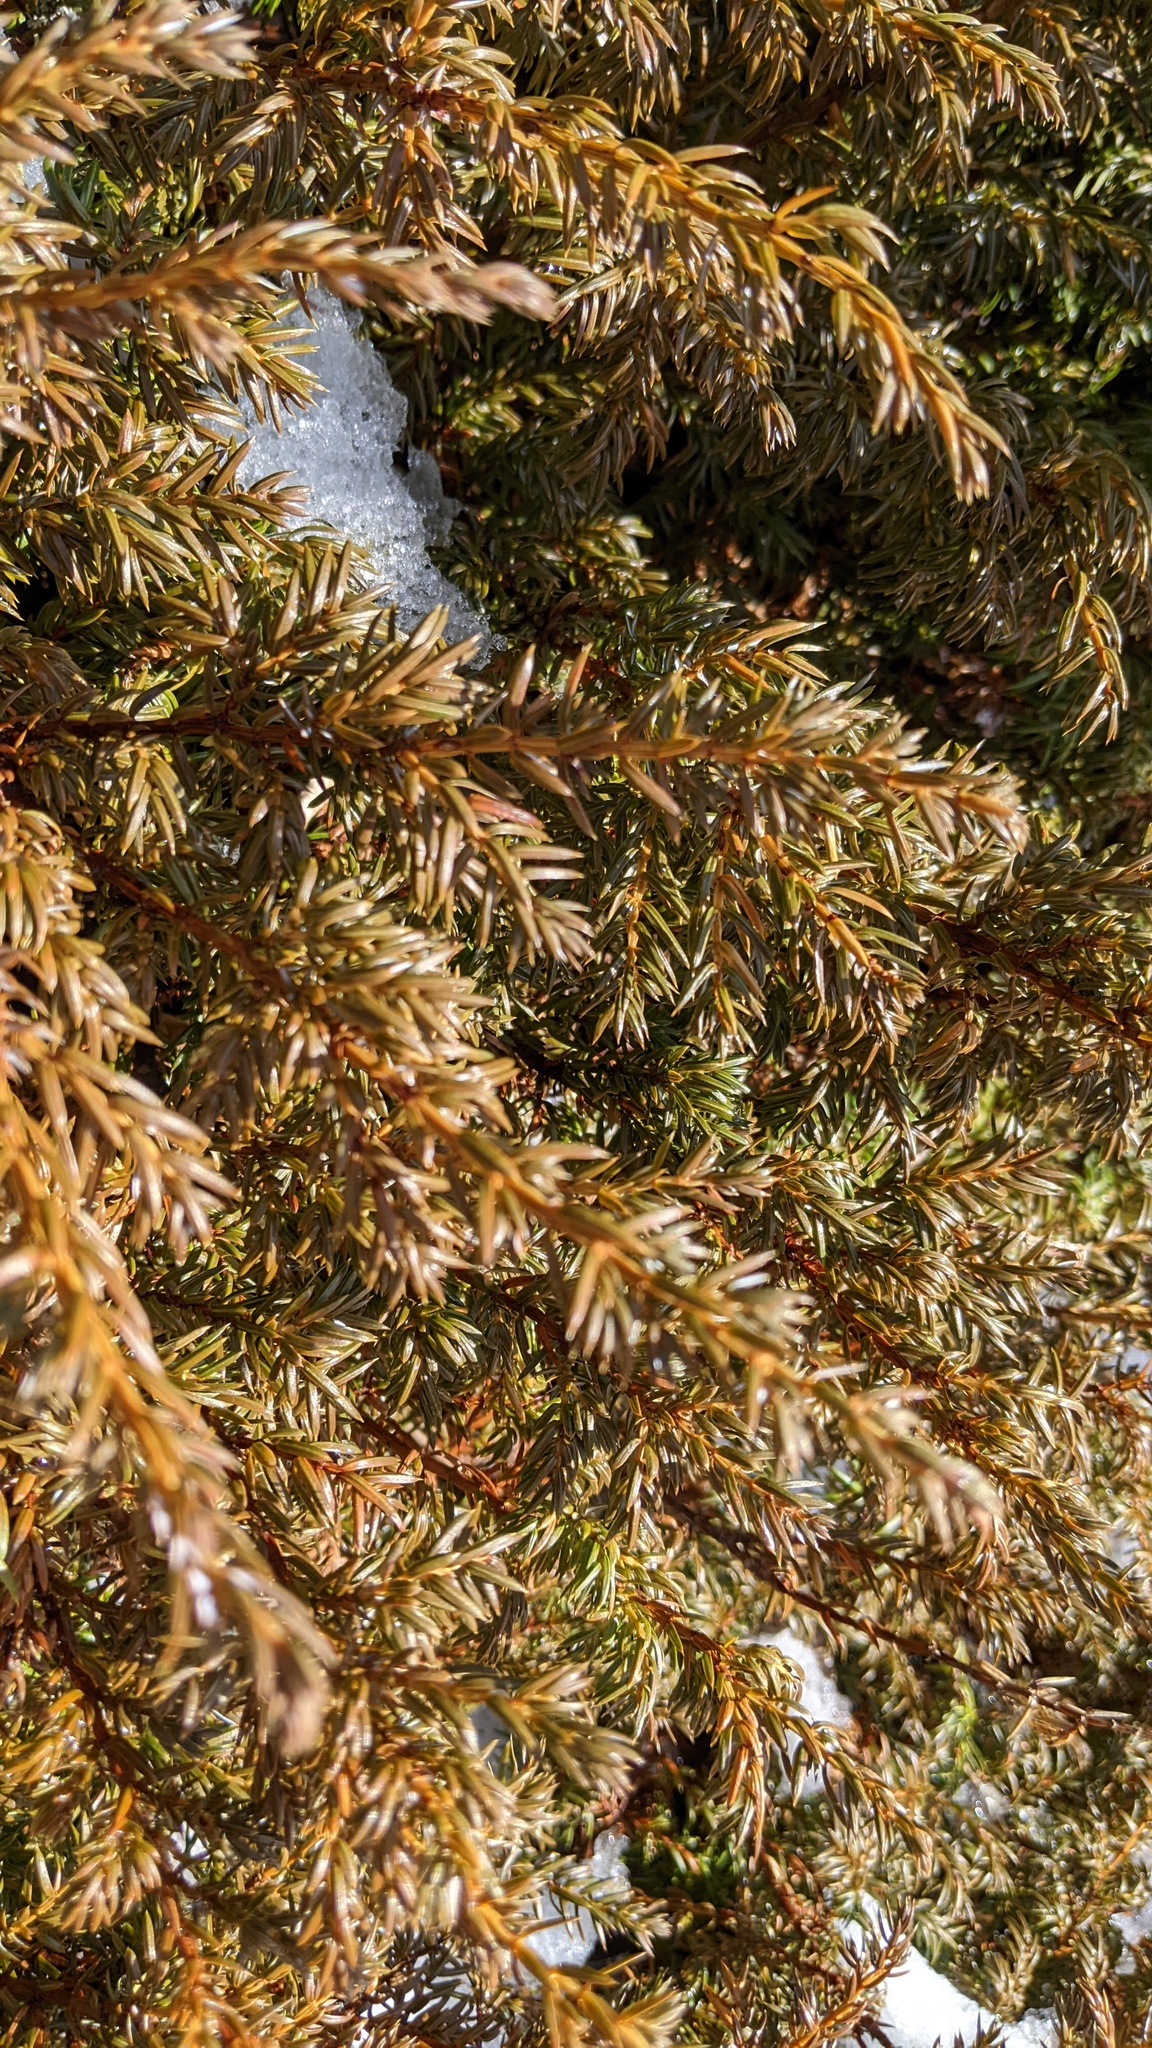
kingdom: Plantae
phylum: Tracheophyta
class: Pinopsida
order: Pinales
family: Cupressaceae
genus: Juniperus
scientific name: Juniperus communis
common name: Common juniper
